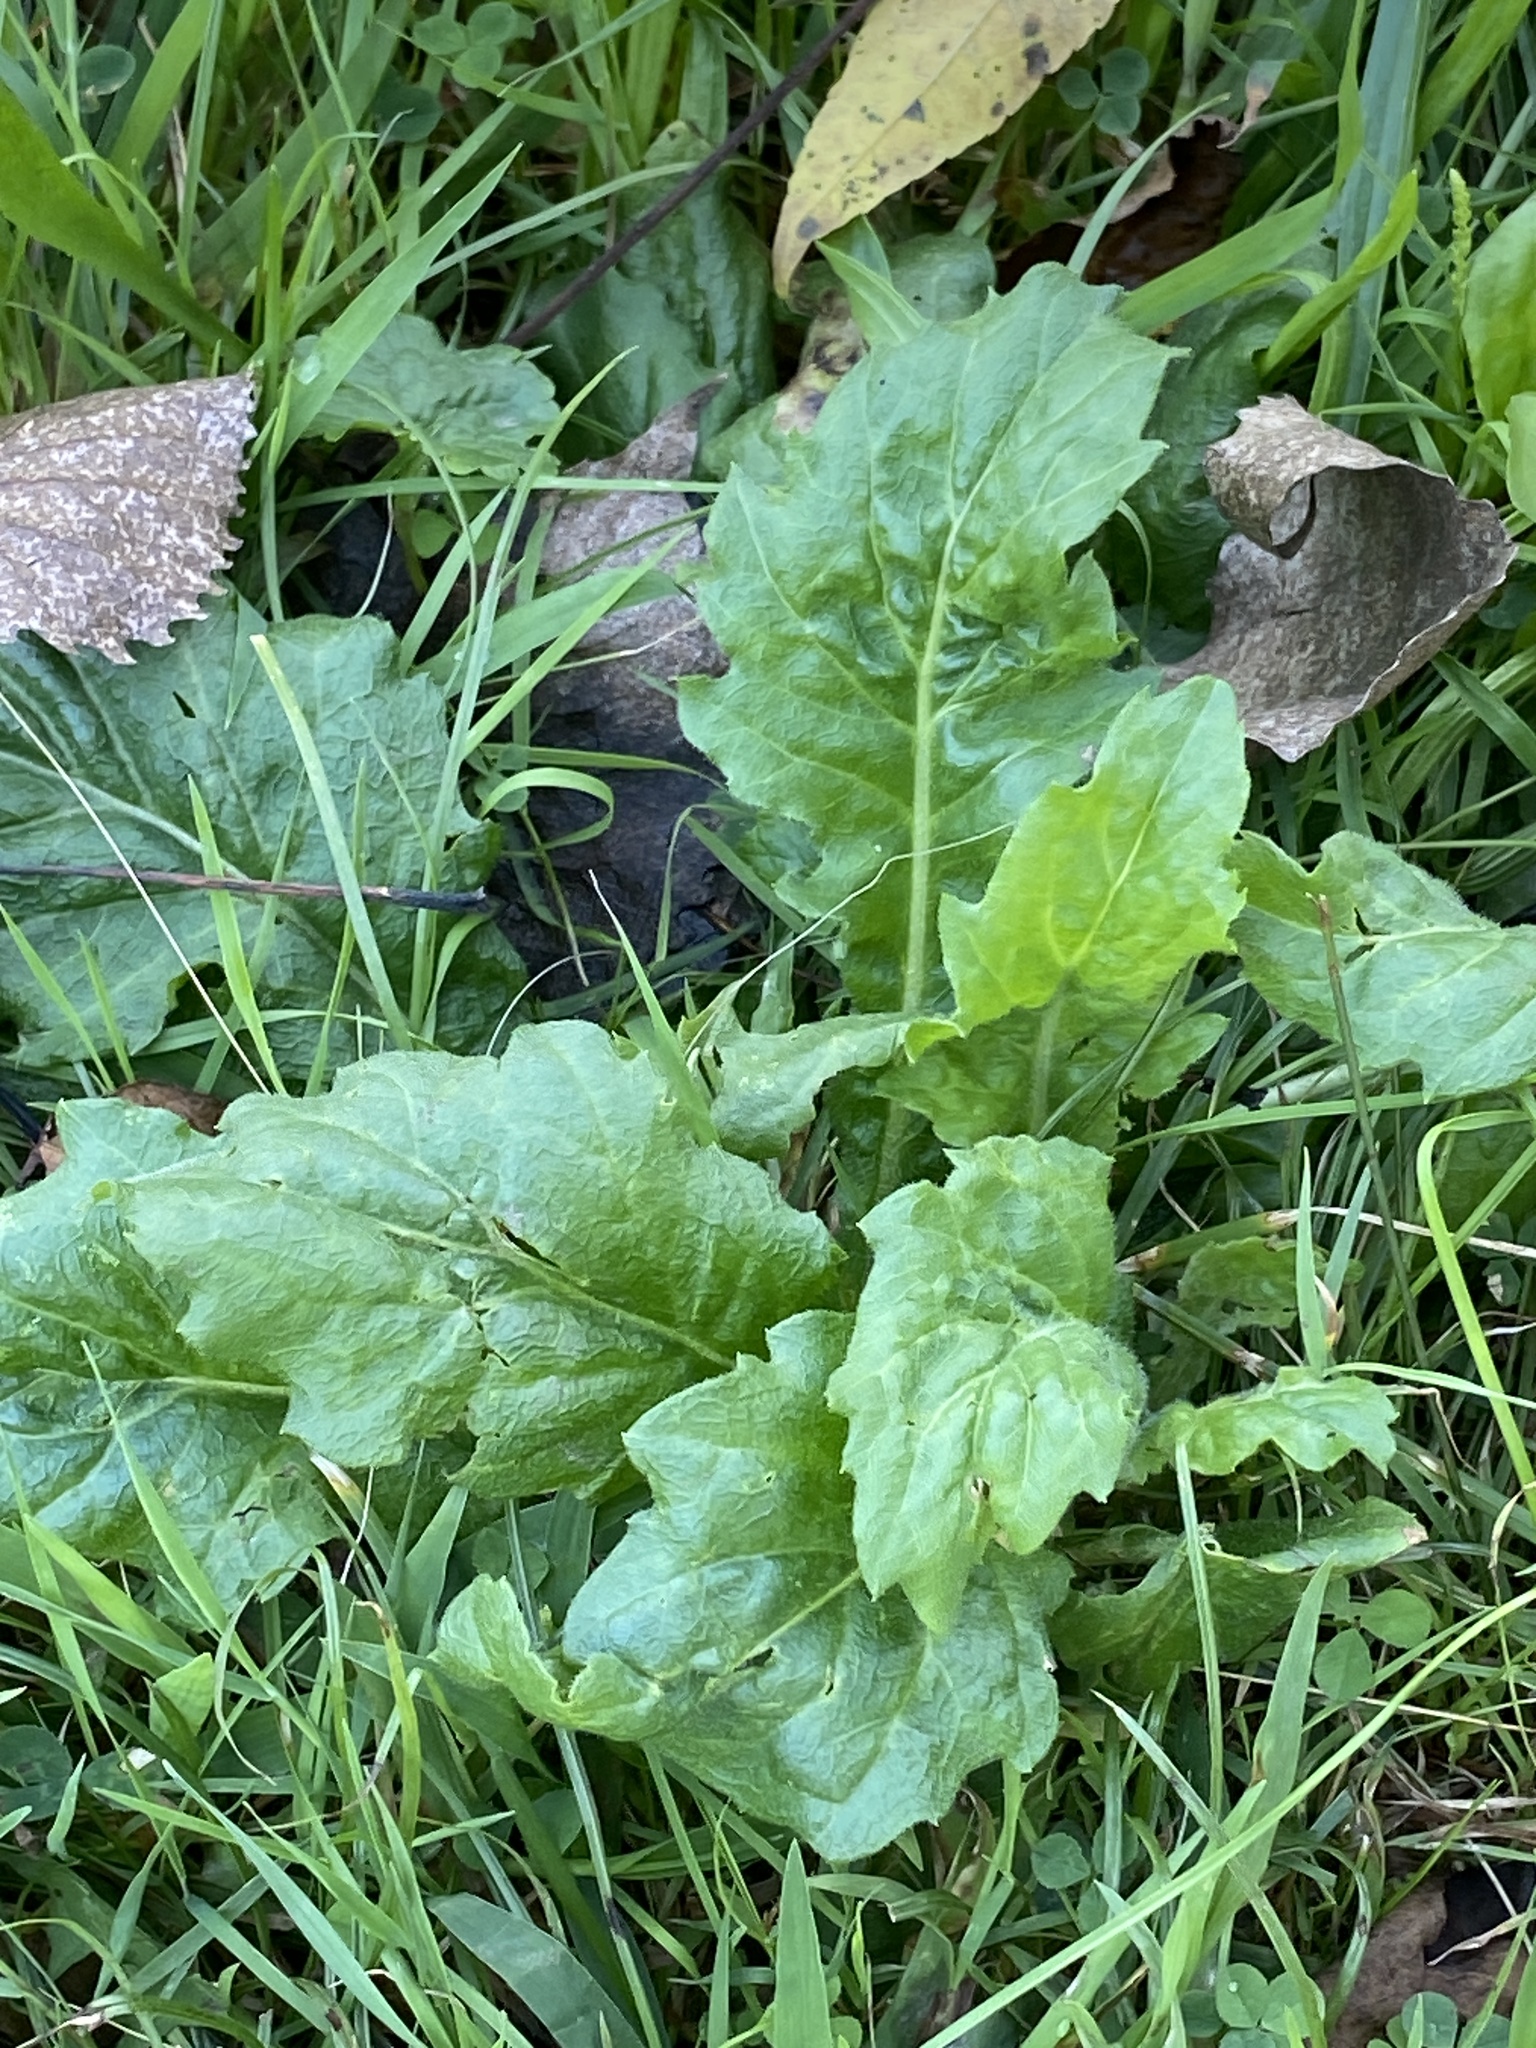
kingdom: Plantae
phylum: Tracheophyta
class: Magnoliopsida
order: Asterales
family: Asteraceae
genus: Erigeron
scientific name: Erigeron annuus
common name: Tall fleabane
